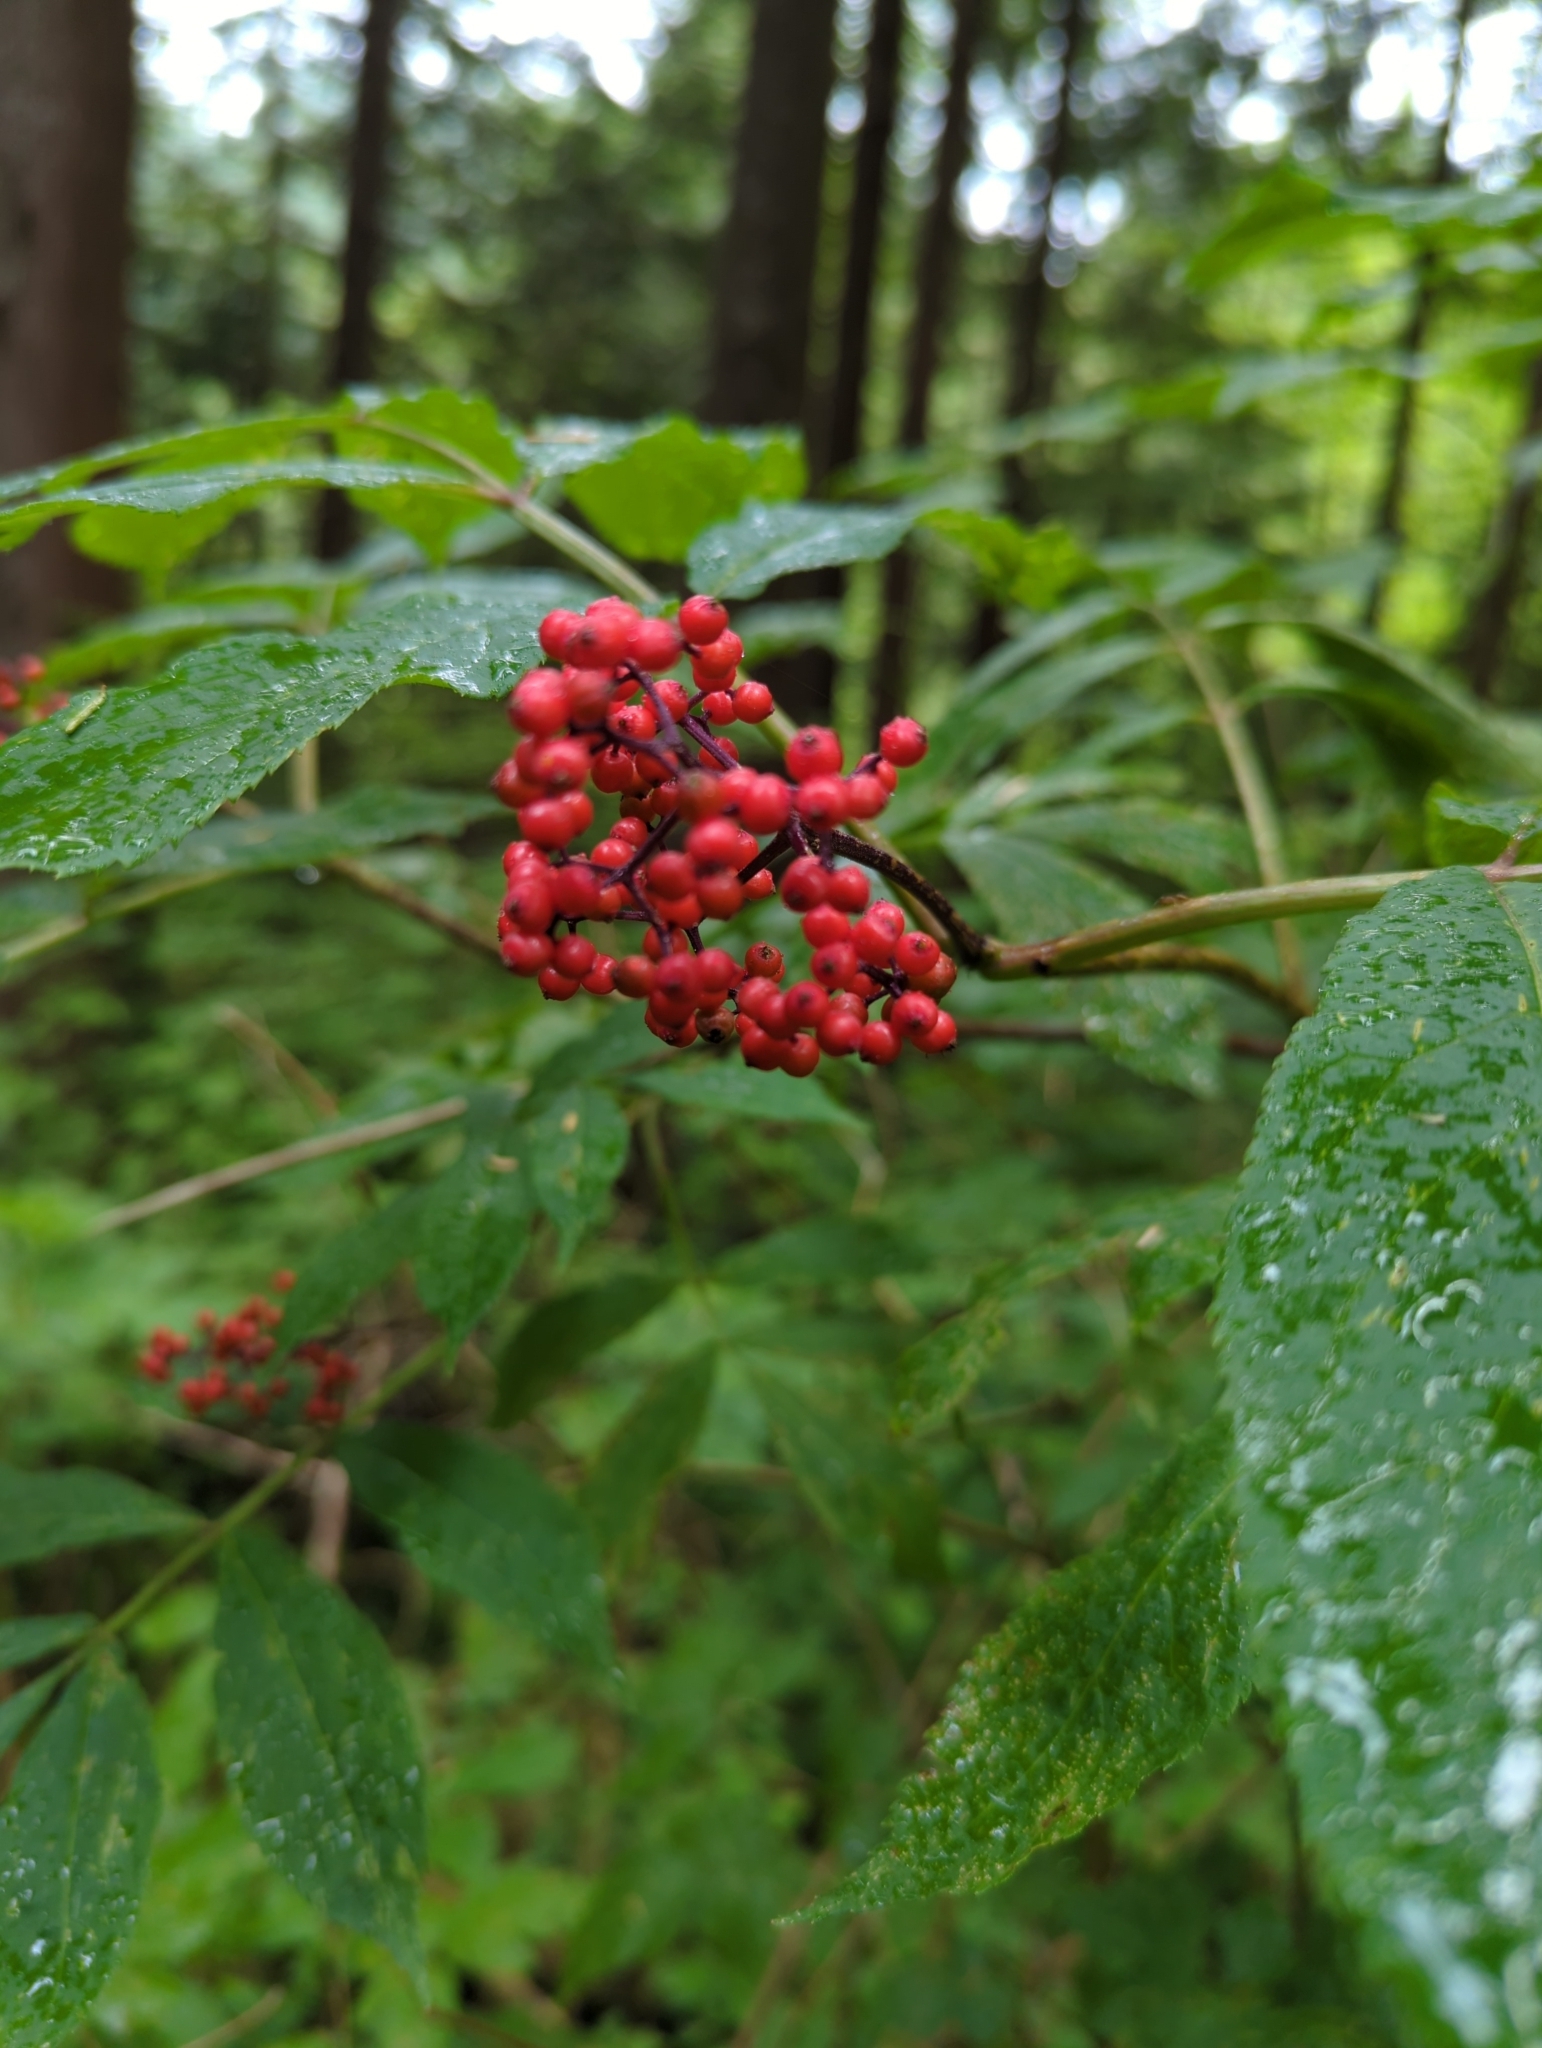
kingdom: Plantae
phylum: Tracheophyta
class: Magnoliopsida
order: Dipsacales
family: Viburnaceae
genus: Sambucus
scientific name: Sambucus racemosa
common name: Red-berried elder
